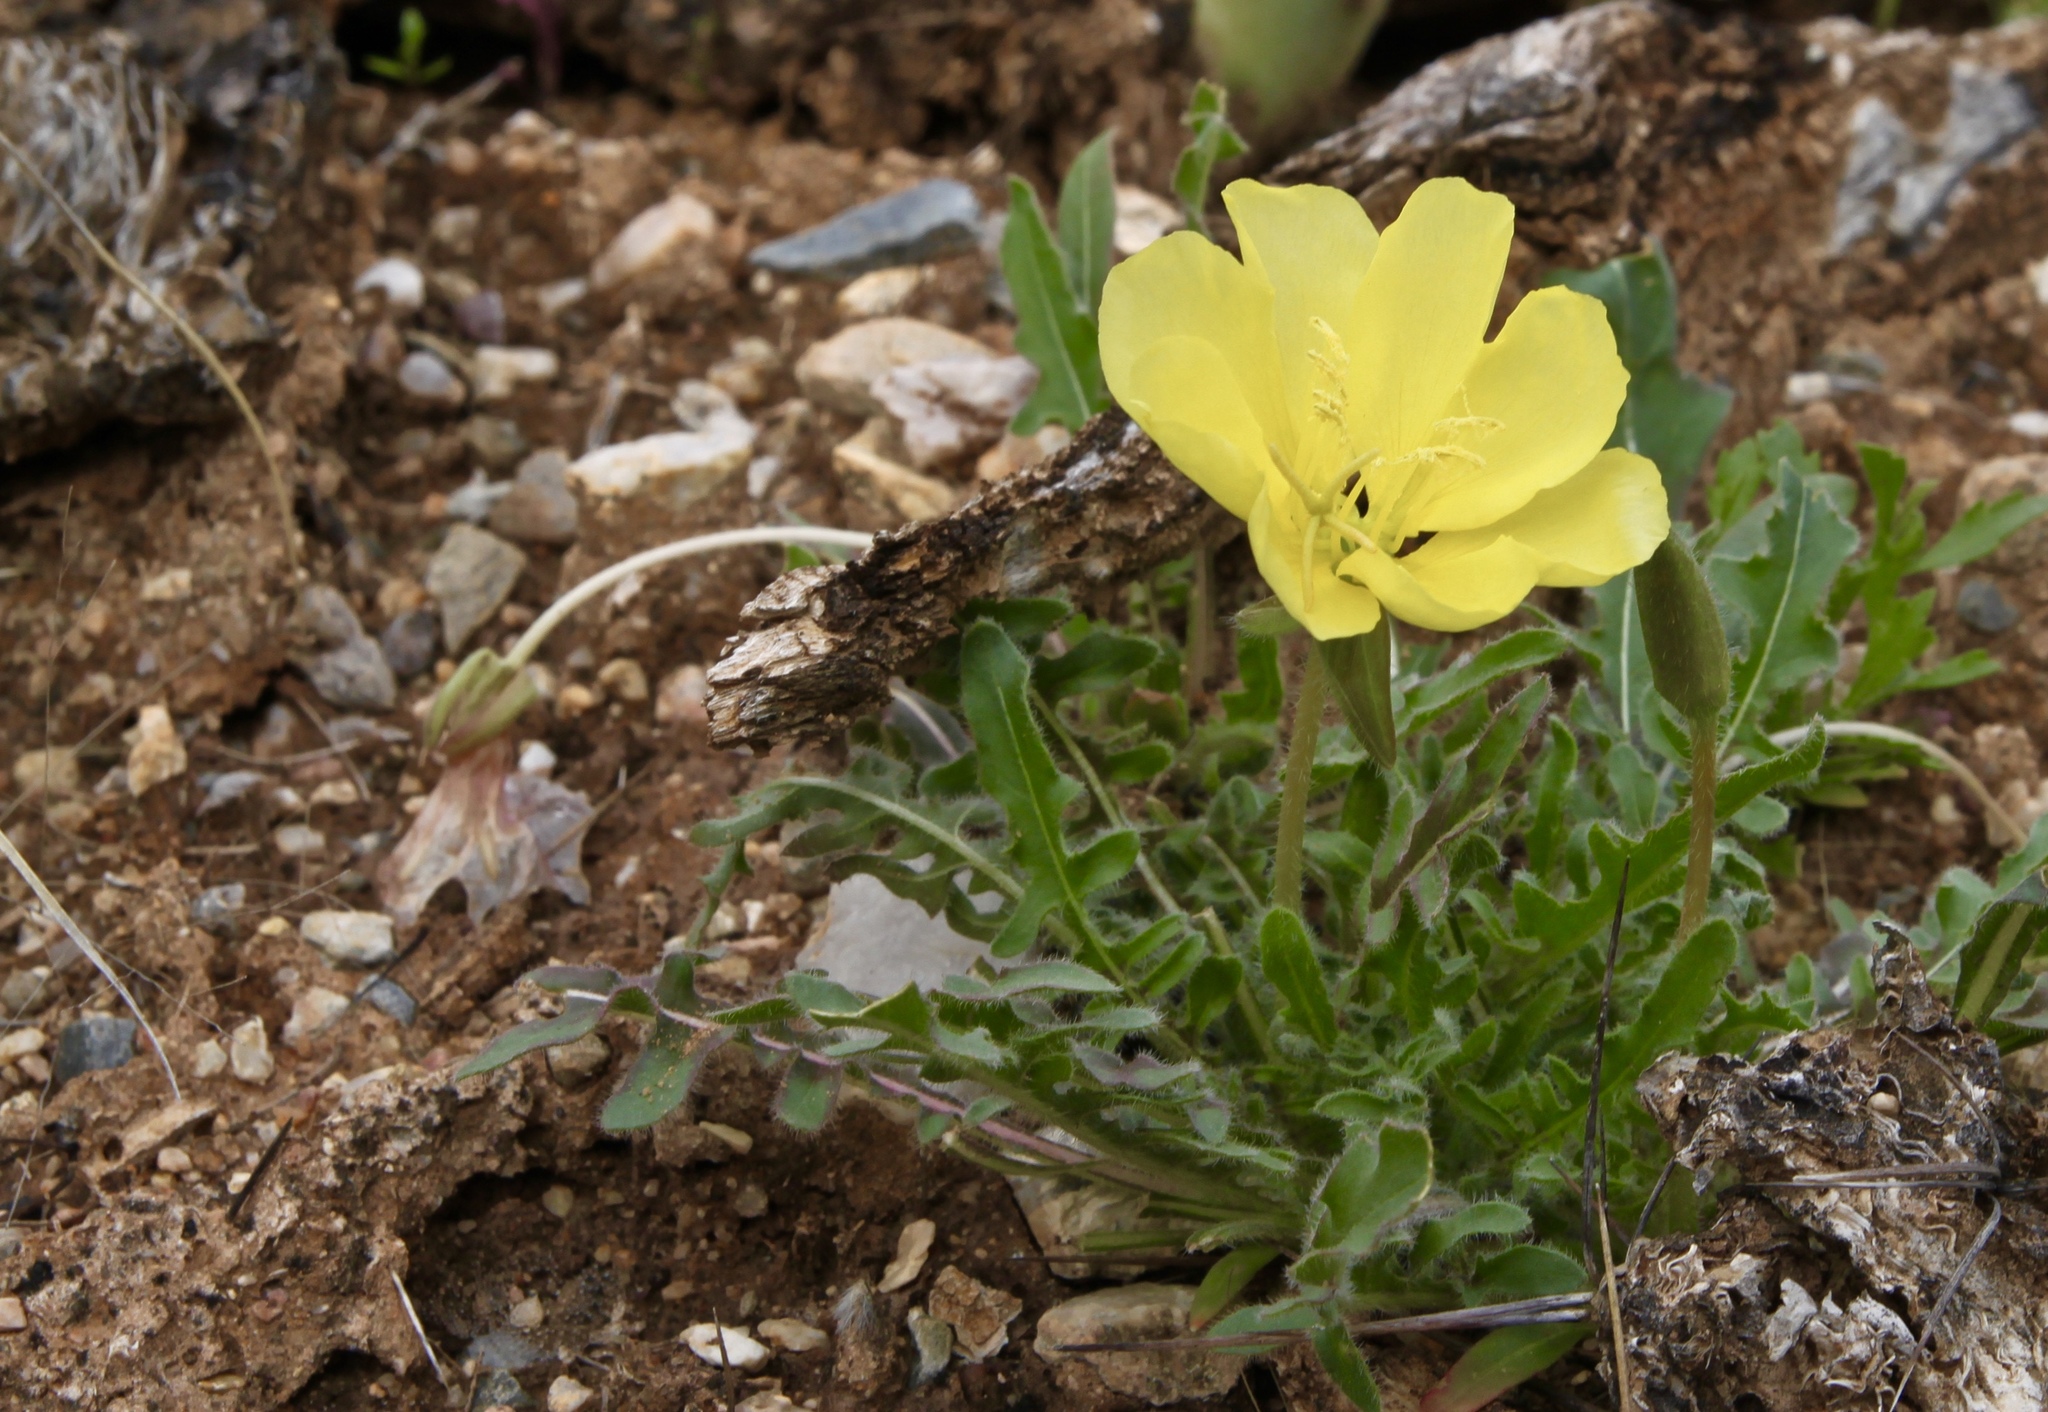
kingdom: Plantae
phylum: Tracheophyta
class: Magnoliopsida
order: Myrtales
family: Onagraceae
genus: Oenothera
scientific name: Oenothera primiveris
